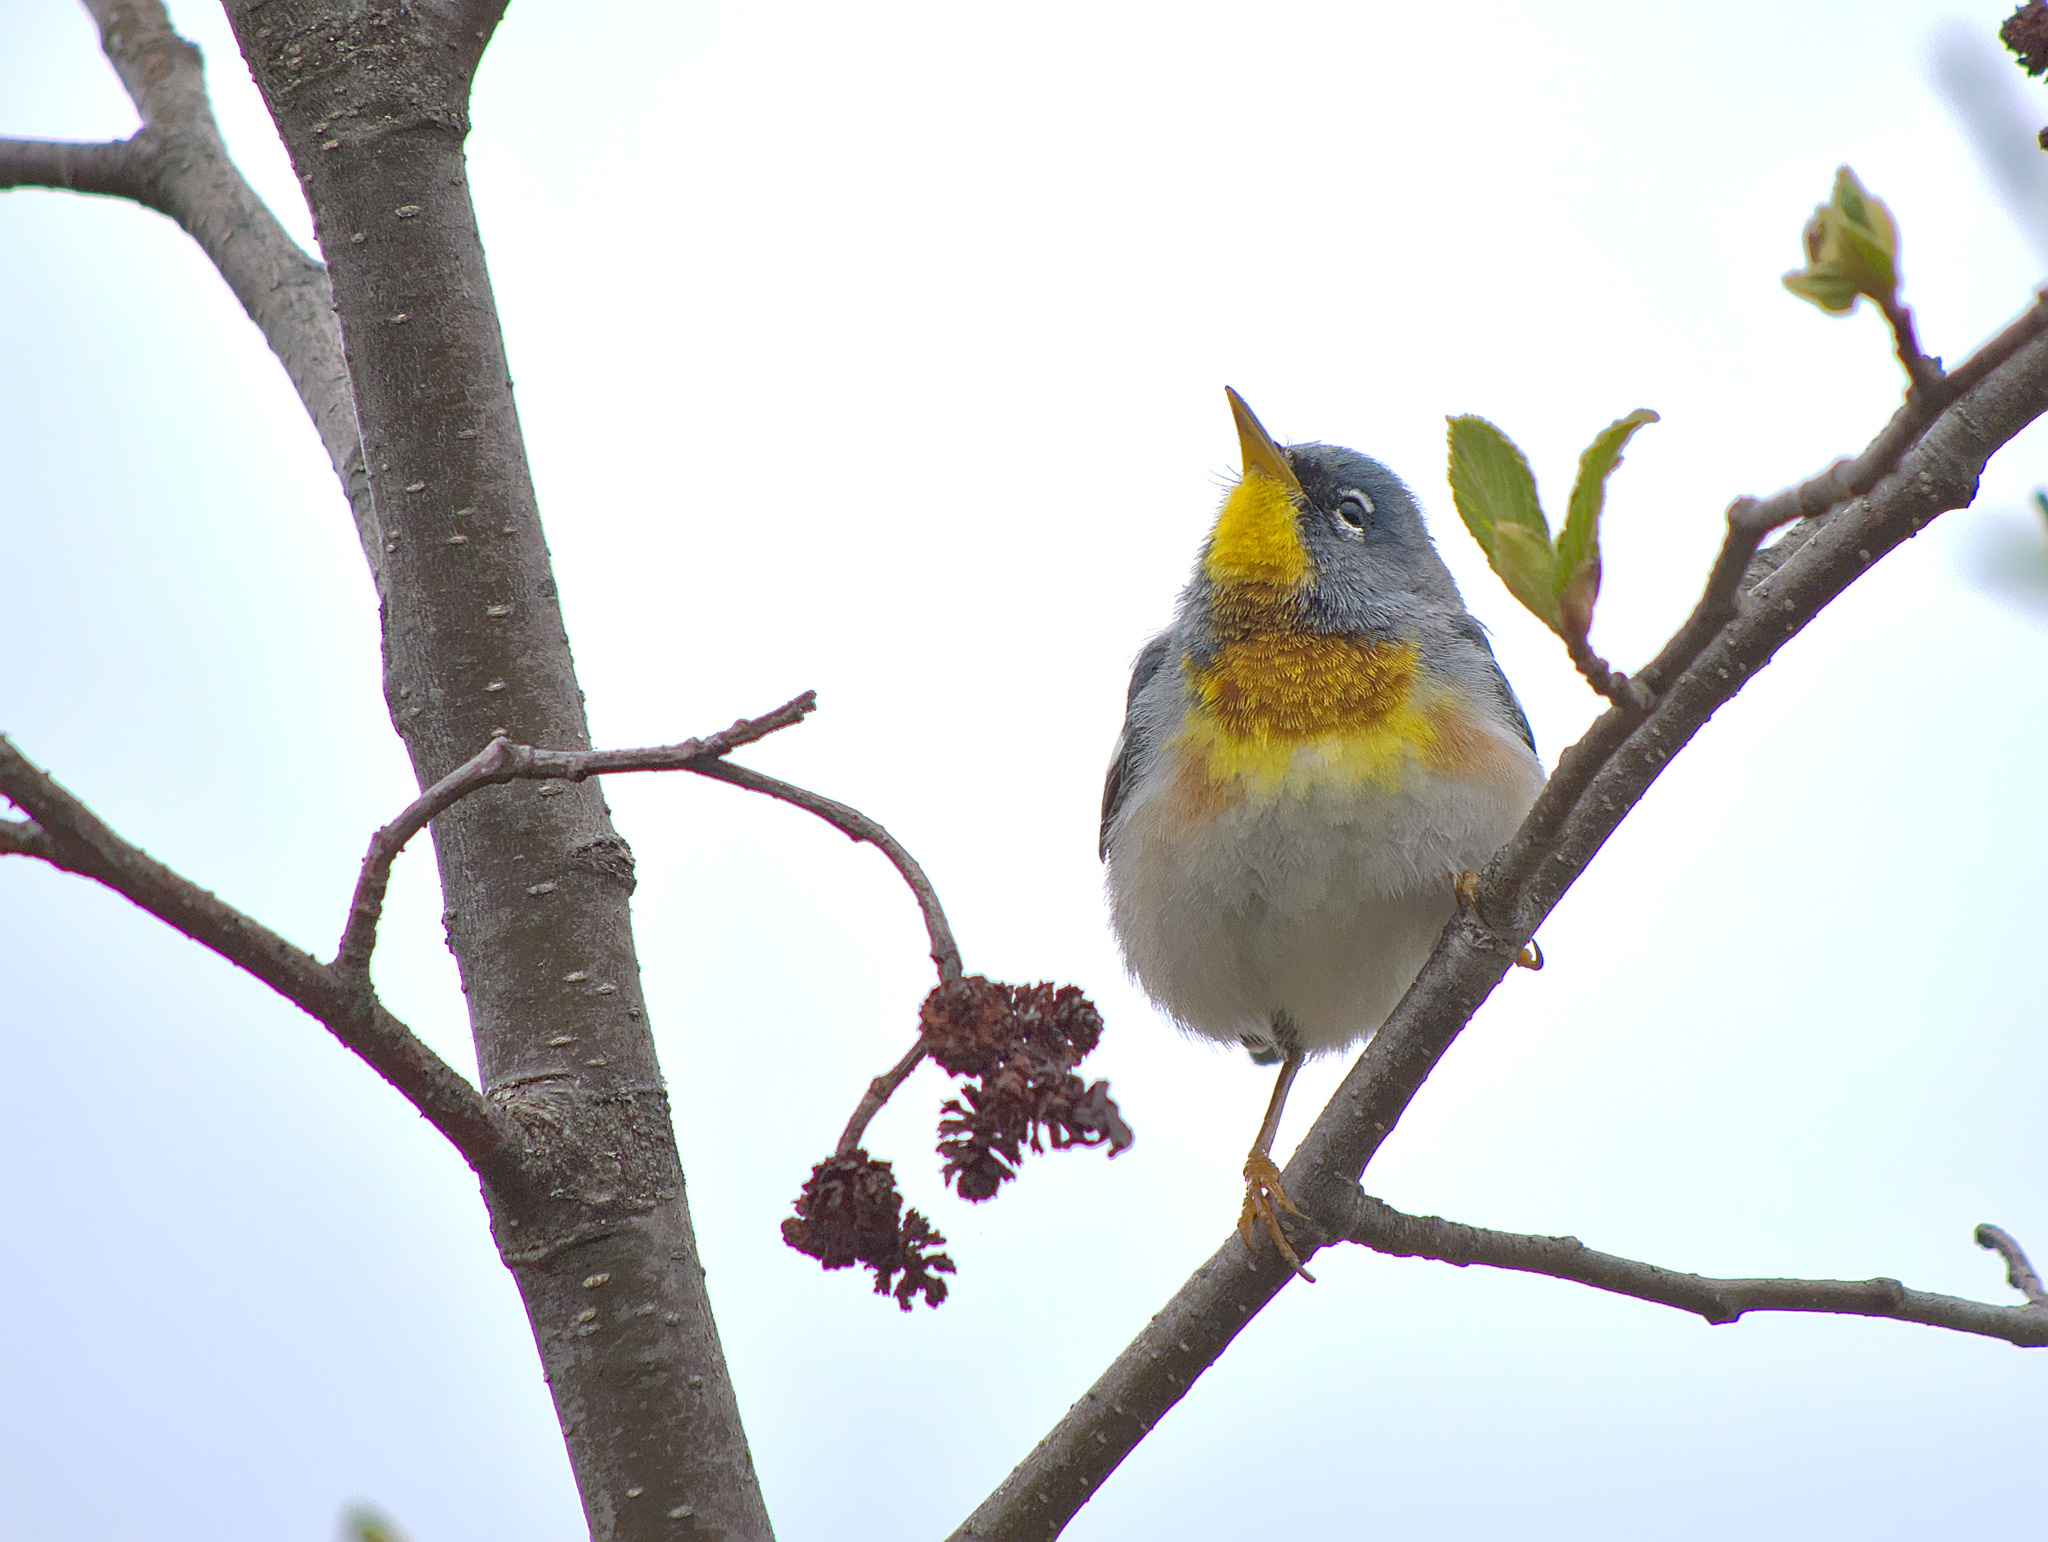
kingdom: Animalia
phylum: Chordata
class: Aves
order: Passeriformes
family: Parulidae
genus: Setophaga
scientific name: Setophaga americana
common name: Northern parula
